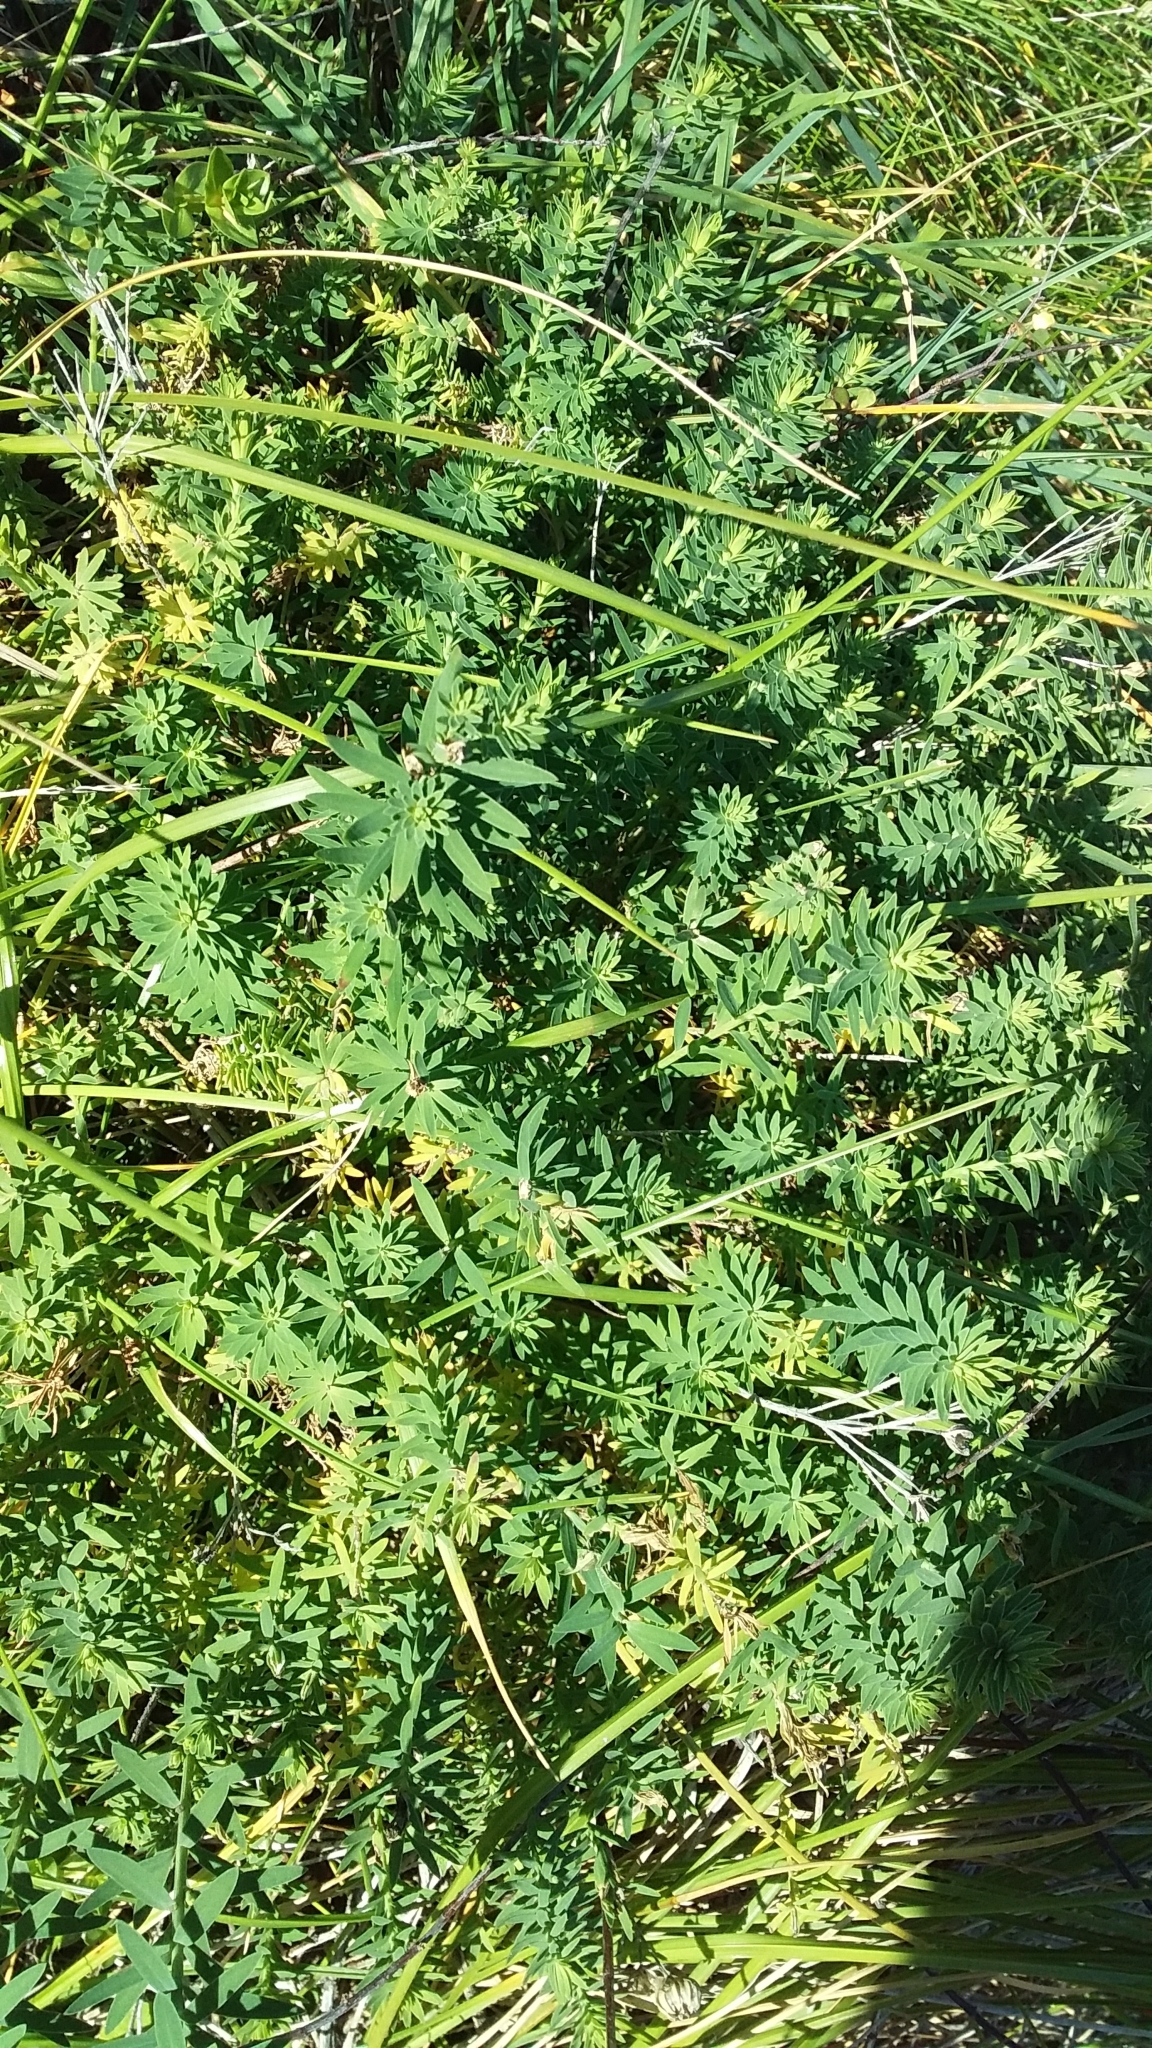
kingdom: Plantae
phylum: Tracheophyta
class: Magnoliopsida
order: Malpighiales
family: Linaceae
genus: Linum
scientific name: Linum monogynum
